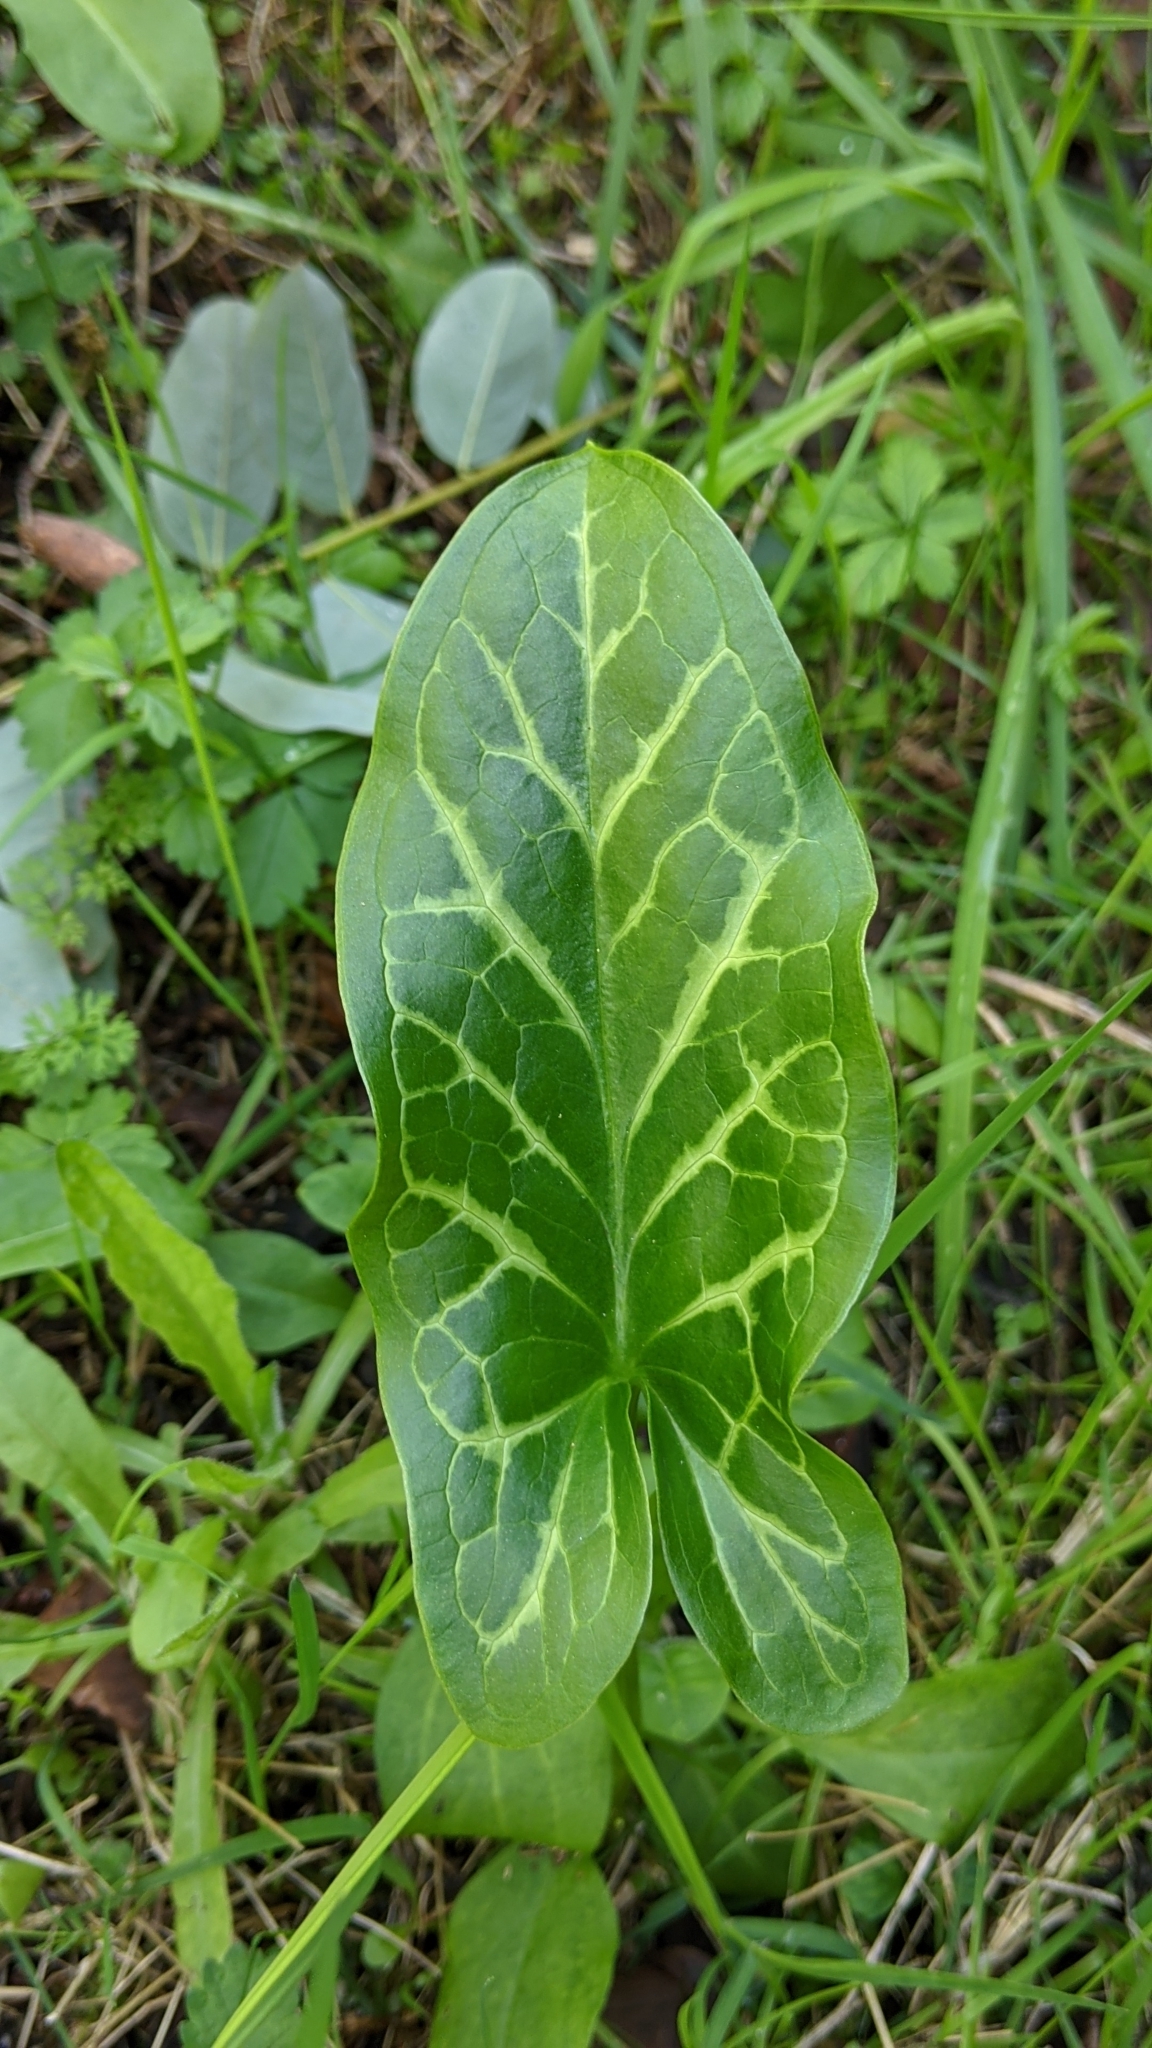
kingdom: Plantae
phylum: Tracheophyta
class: Liliopsida
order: Alismatales
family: Araceae
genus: Arum
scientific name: Arum italicum
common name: Italian lords-and-ladies
